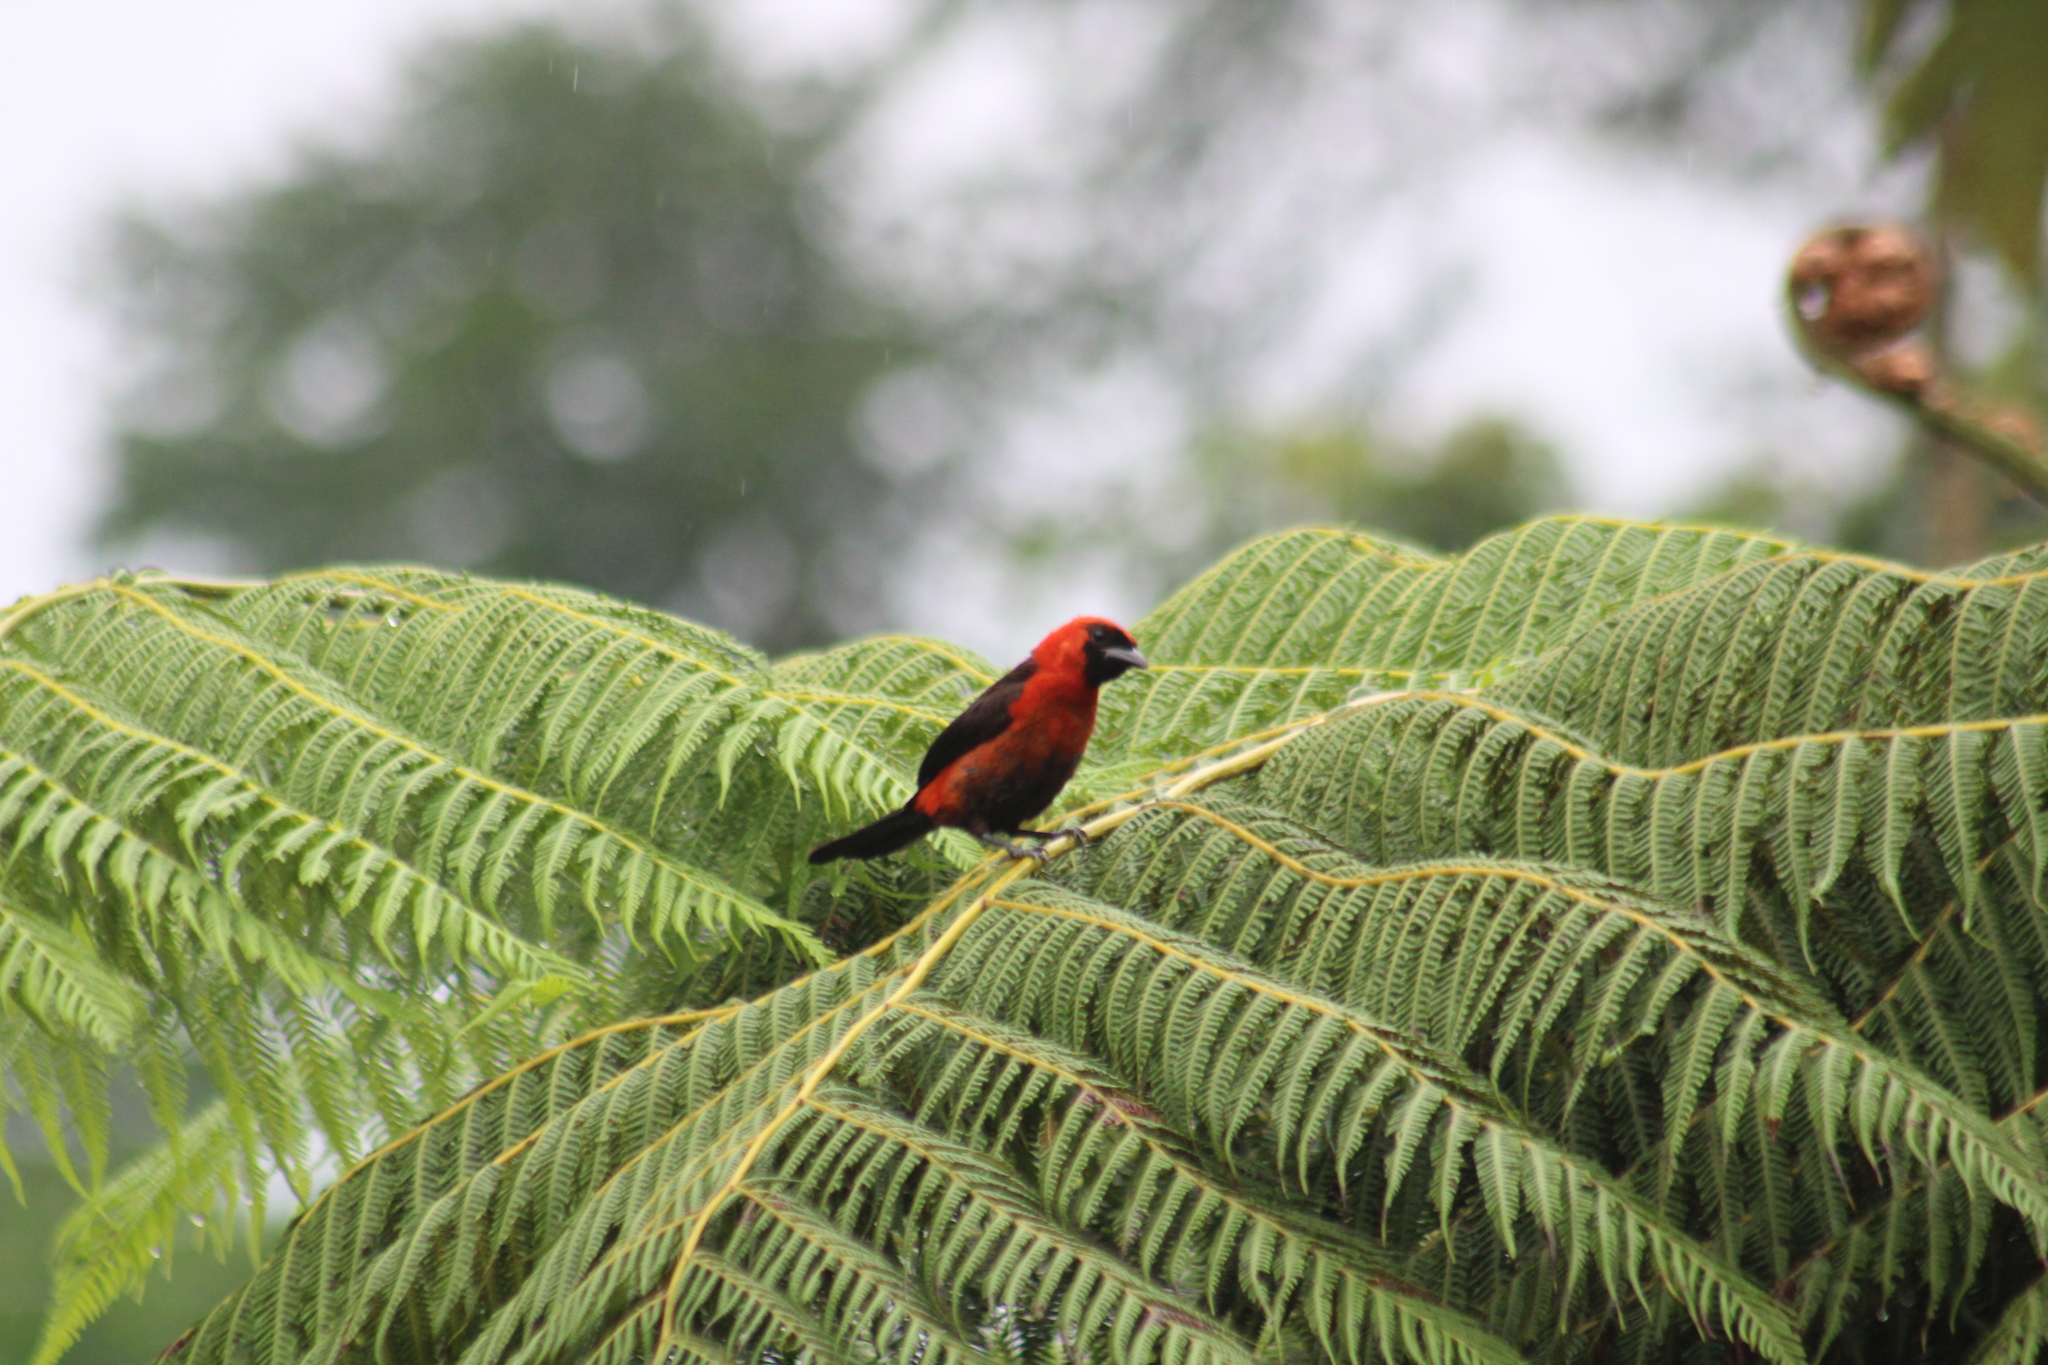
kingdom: Animalia
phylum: Chordata
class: Aves
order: Passeriformes
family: Thraupidae
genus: Ramphocelus
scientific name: Ramphocelus nigrogularis
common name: Masked crimson tanager
